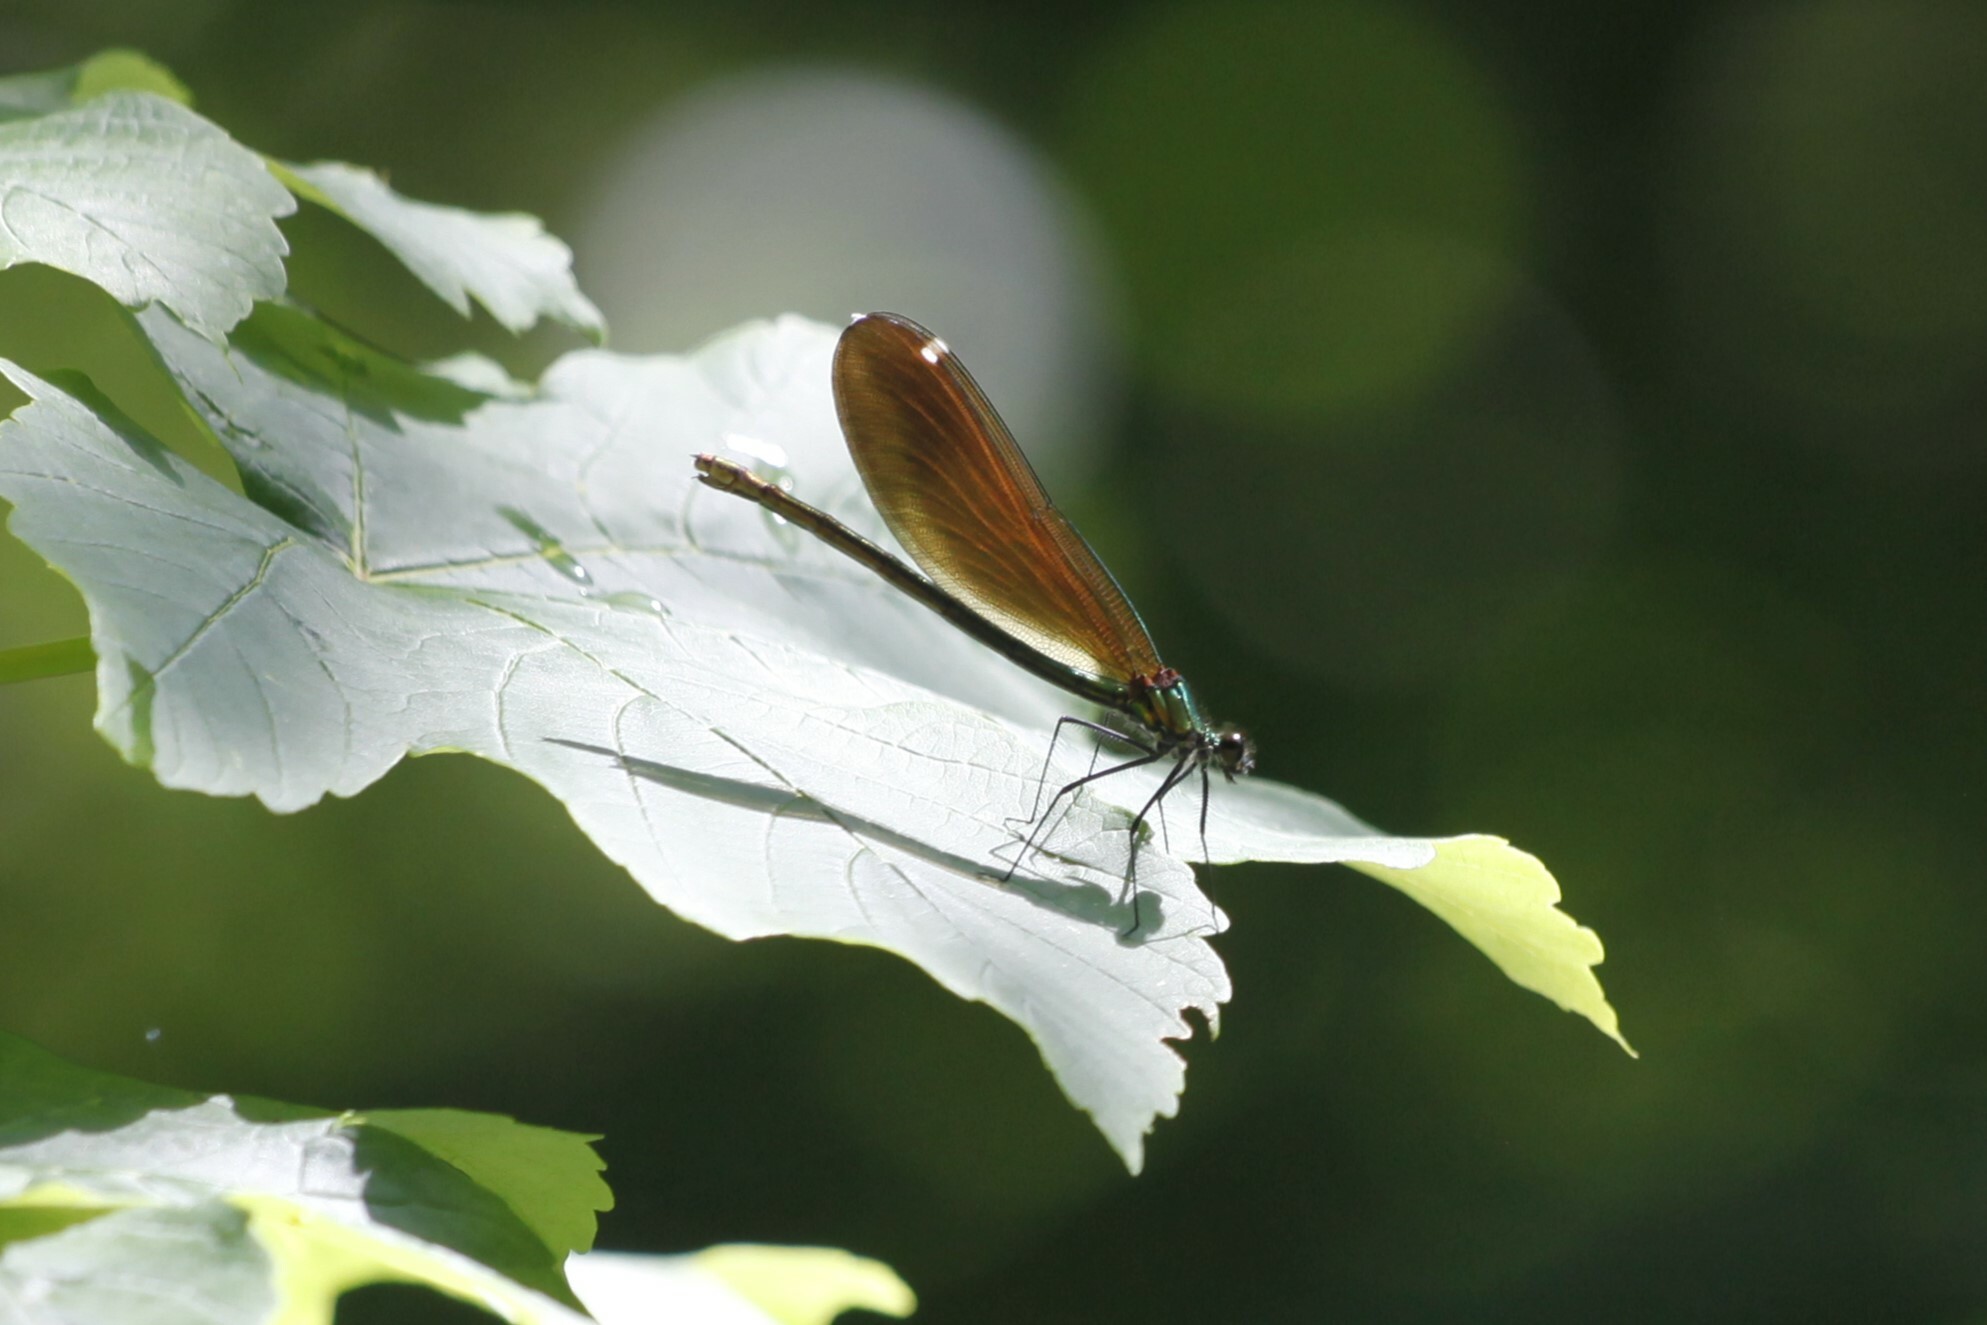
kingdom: Animalia
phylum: Arthropoda
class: Insecta
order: Odonata
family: Calopterygidae
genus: Calopteryx
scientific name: Calopteryx virgo
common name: Beautiful demoiselle
